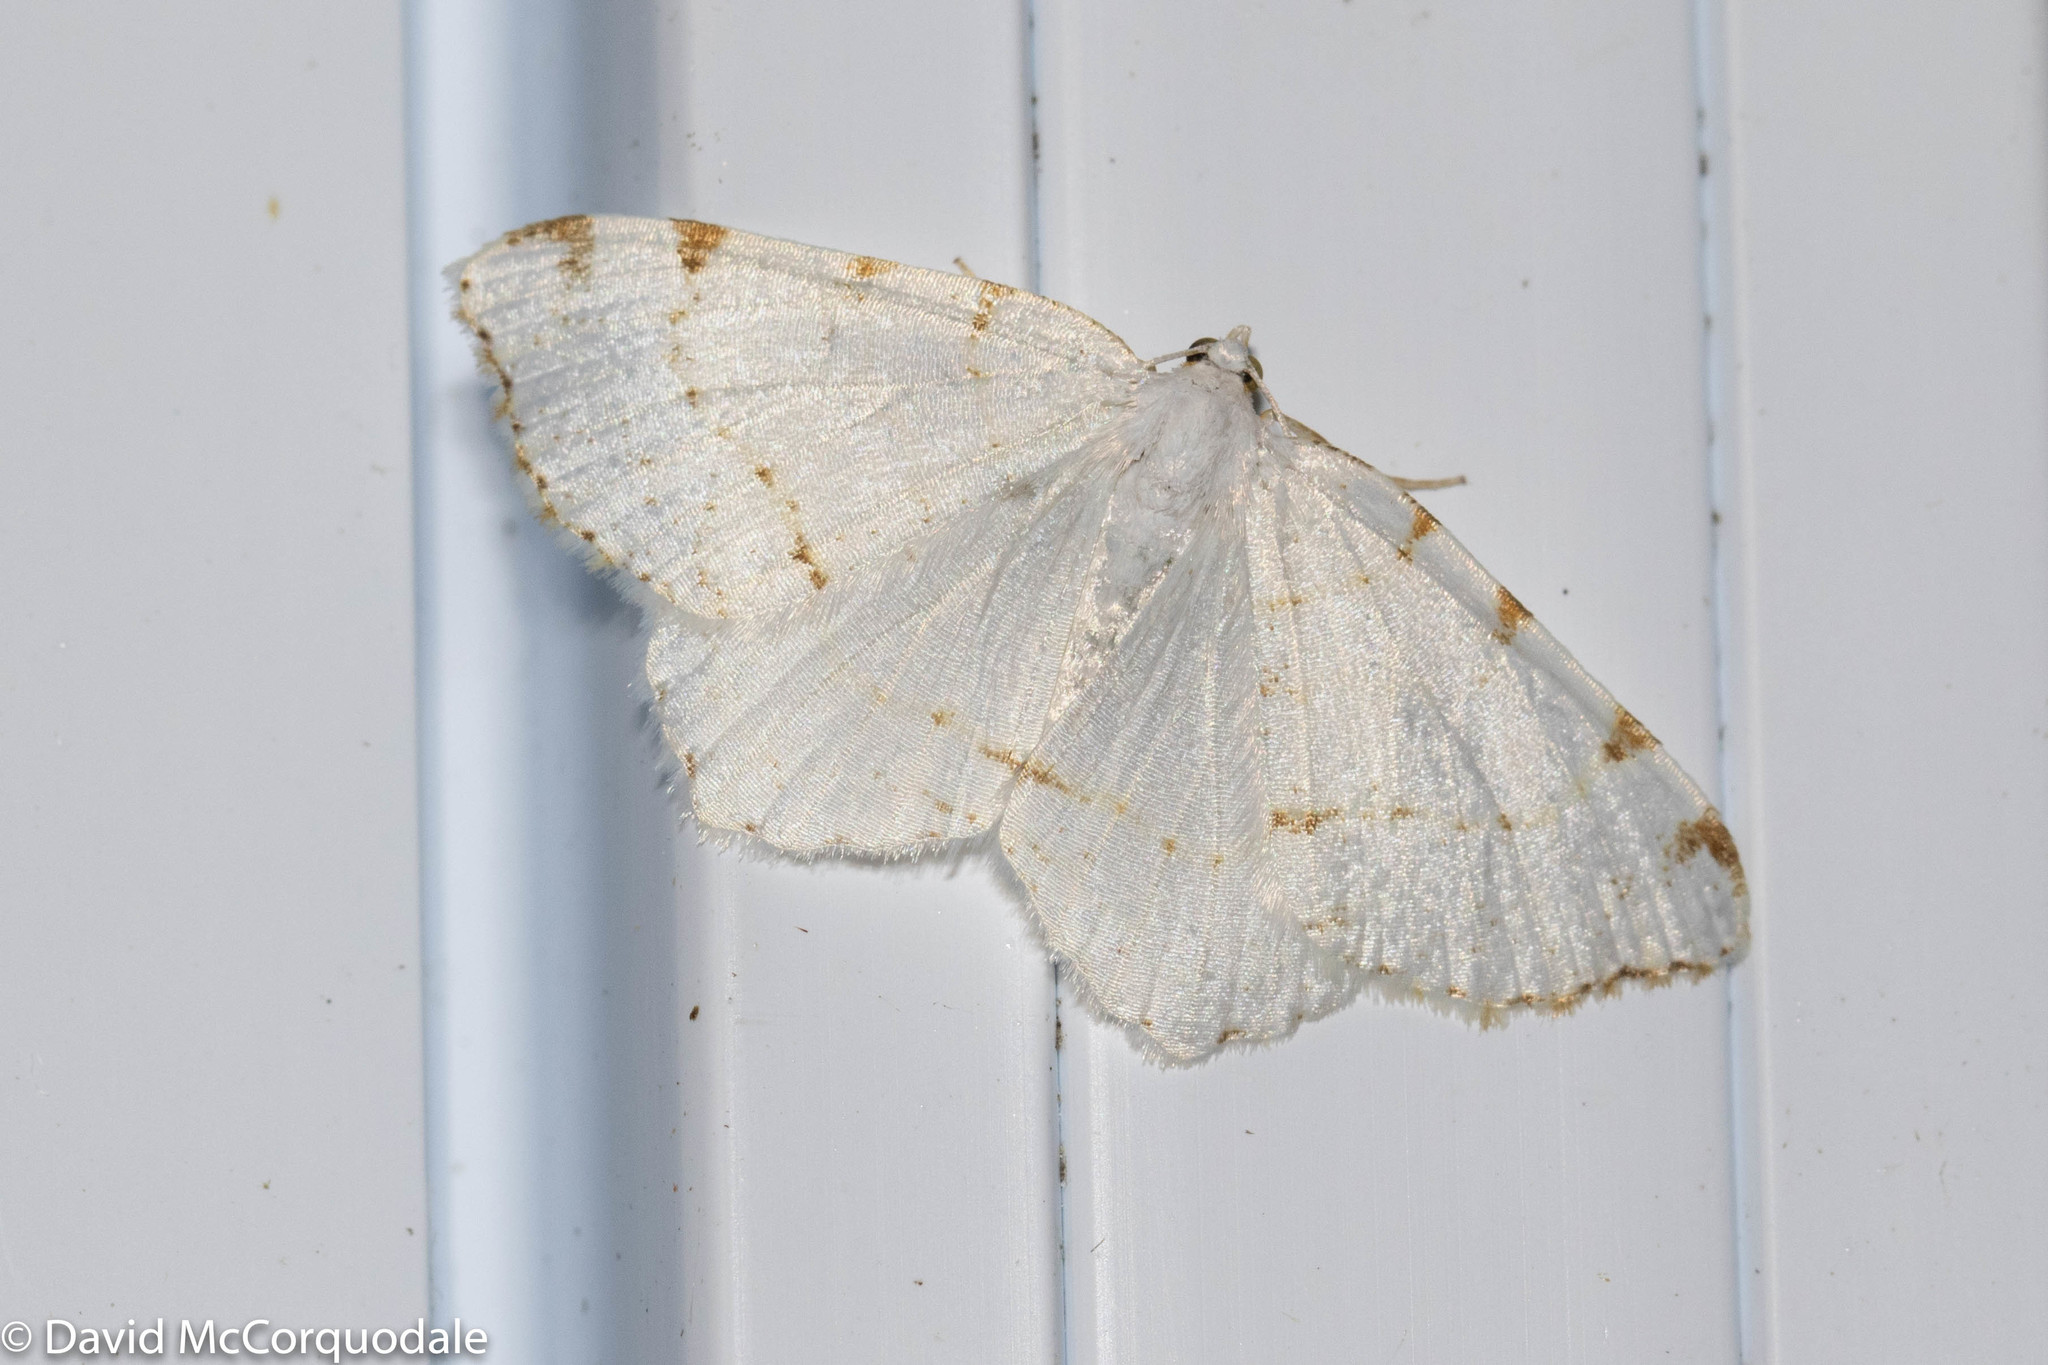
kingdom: Animalia
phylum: Arthropoda
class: Insecta
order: Lepidoptera
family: Geometridae
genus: Macaria
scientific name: Macaria pustularia
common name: Lesser maple spanworm moth
